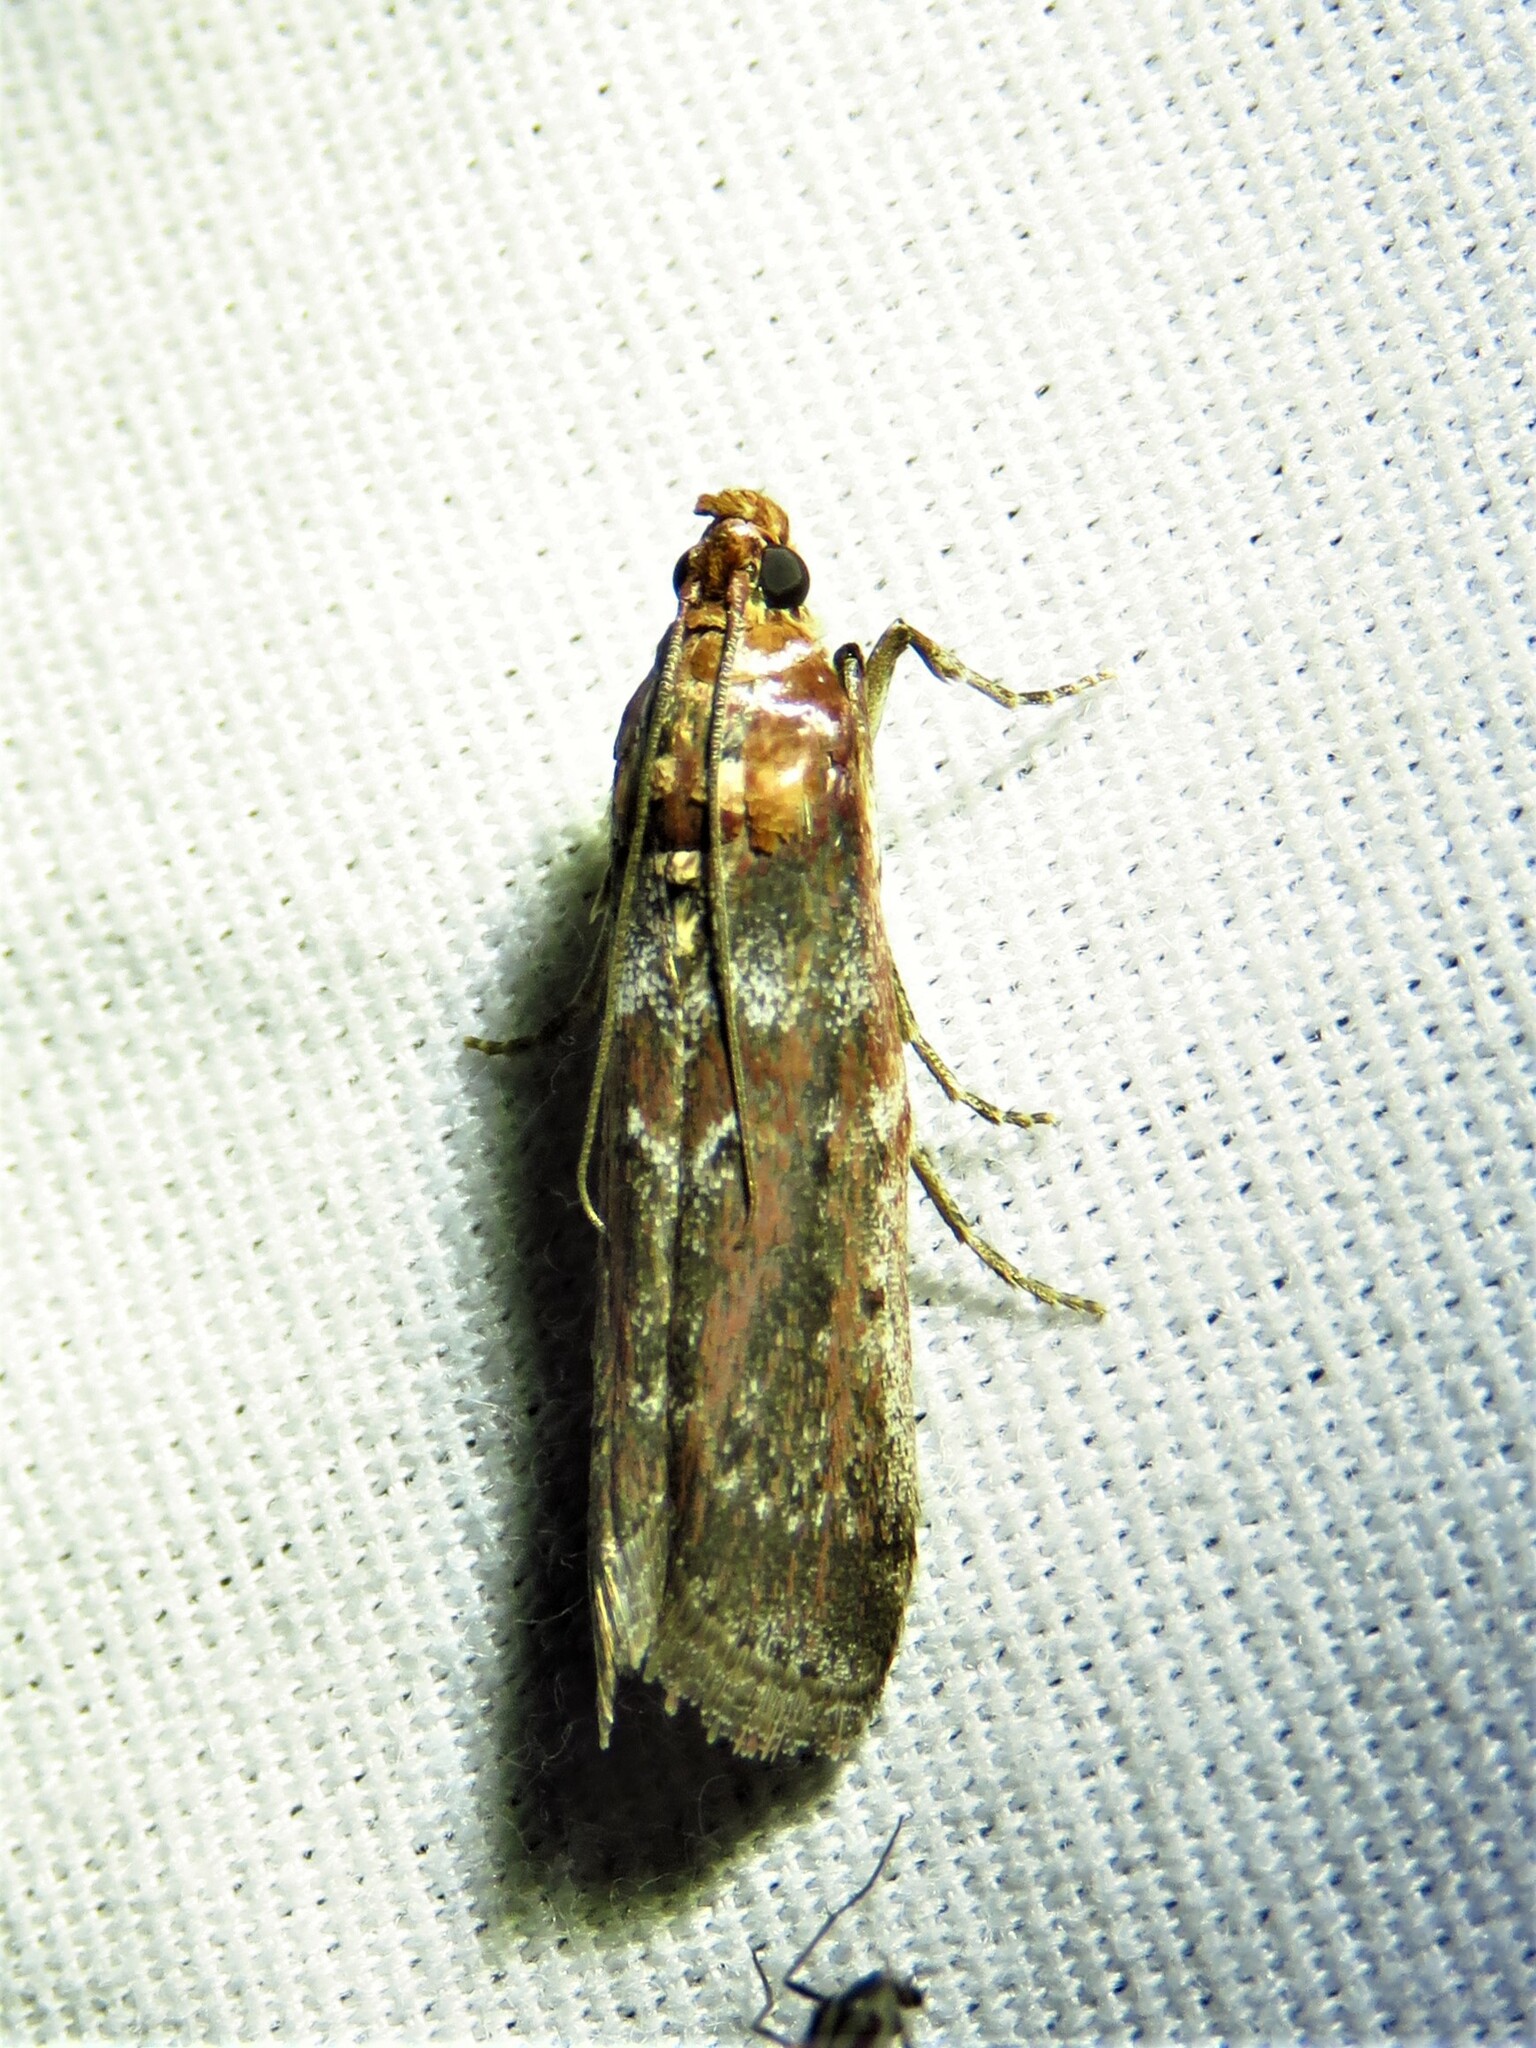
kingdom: Animalia
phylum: Arthropoda
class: Insecta
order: Lepidoptera
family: Pyralidae
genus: Adelphia
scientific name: Adelphia petrella
